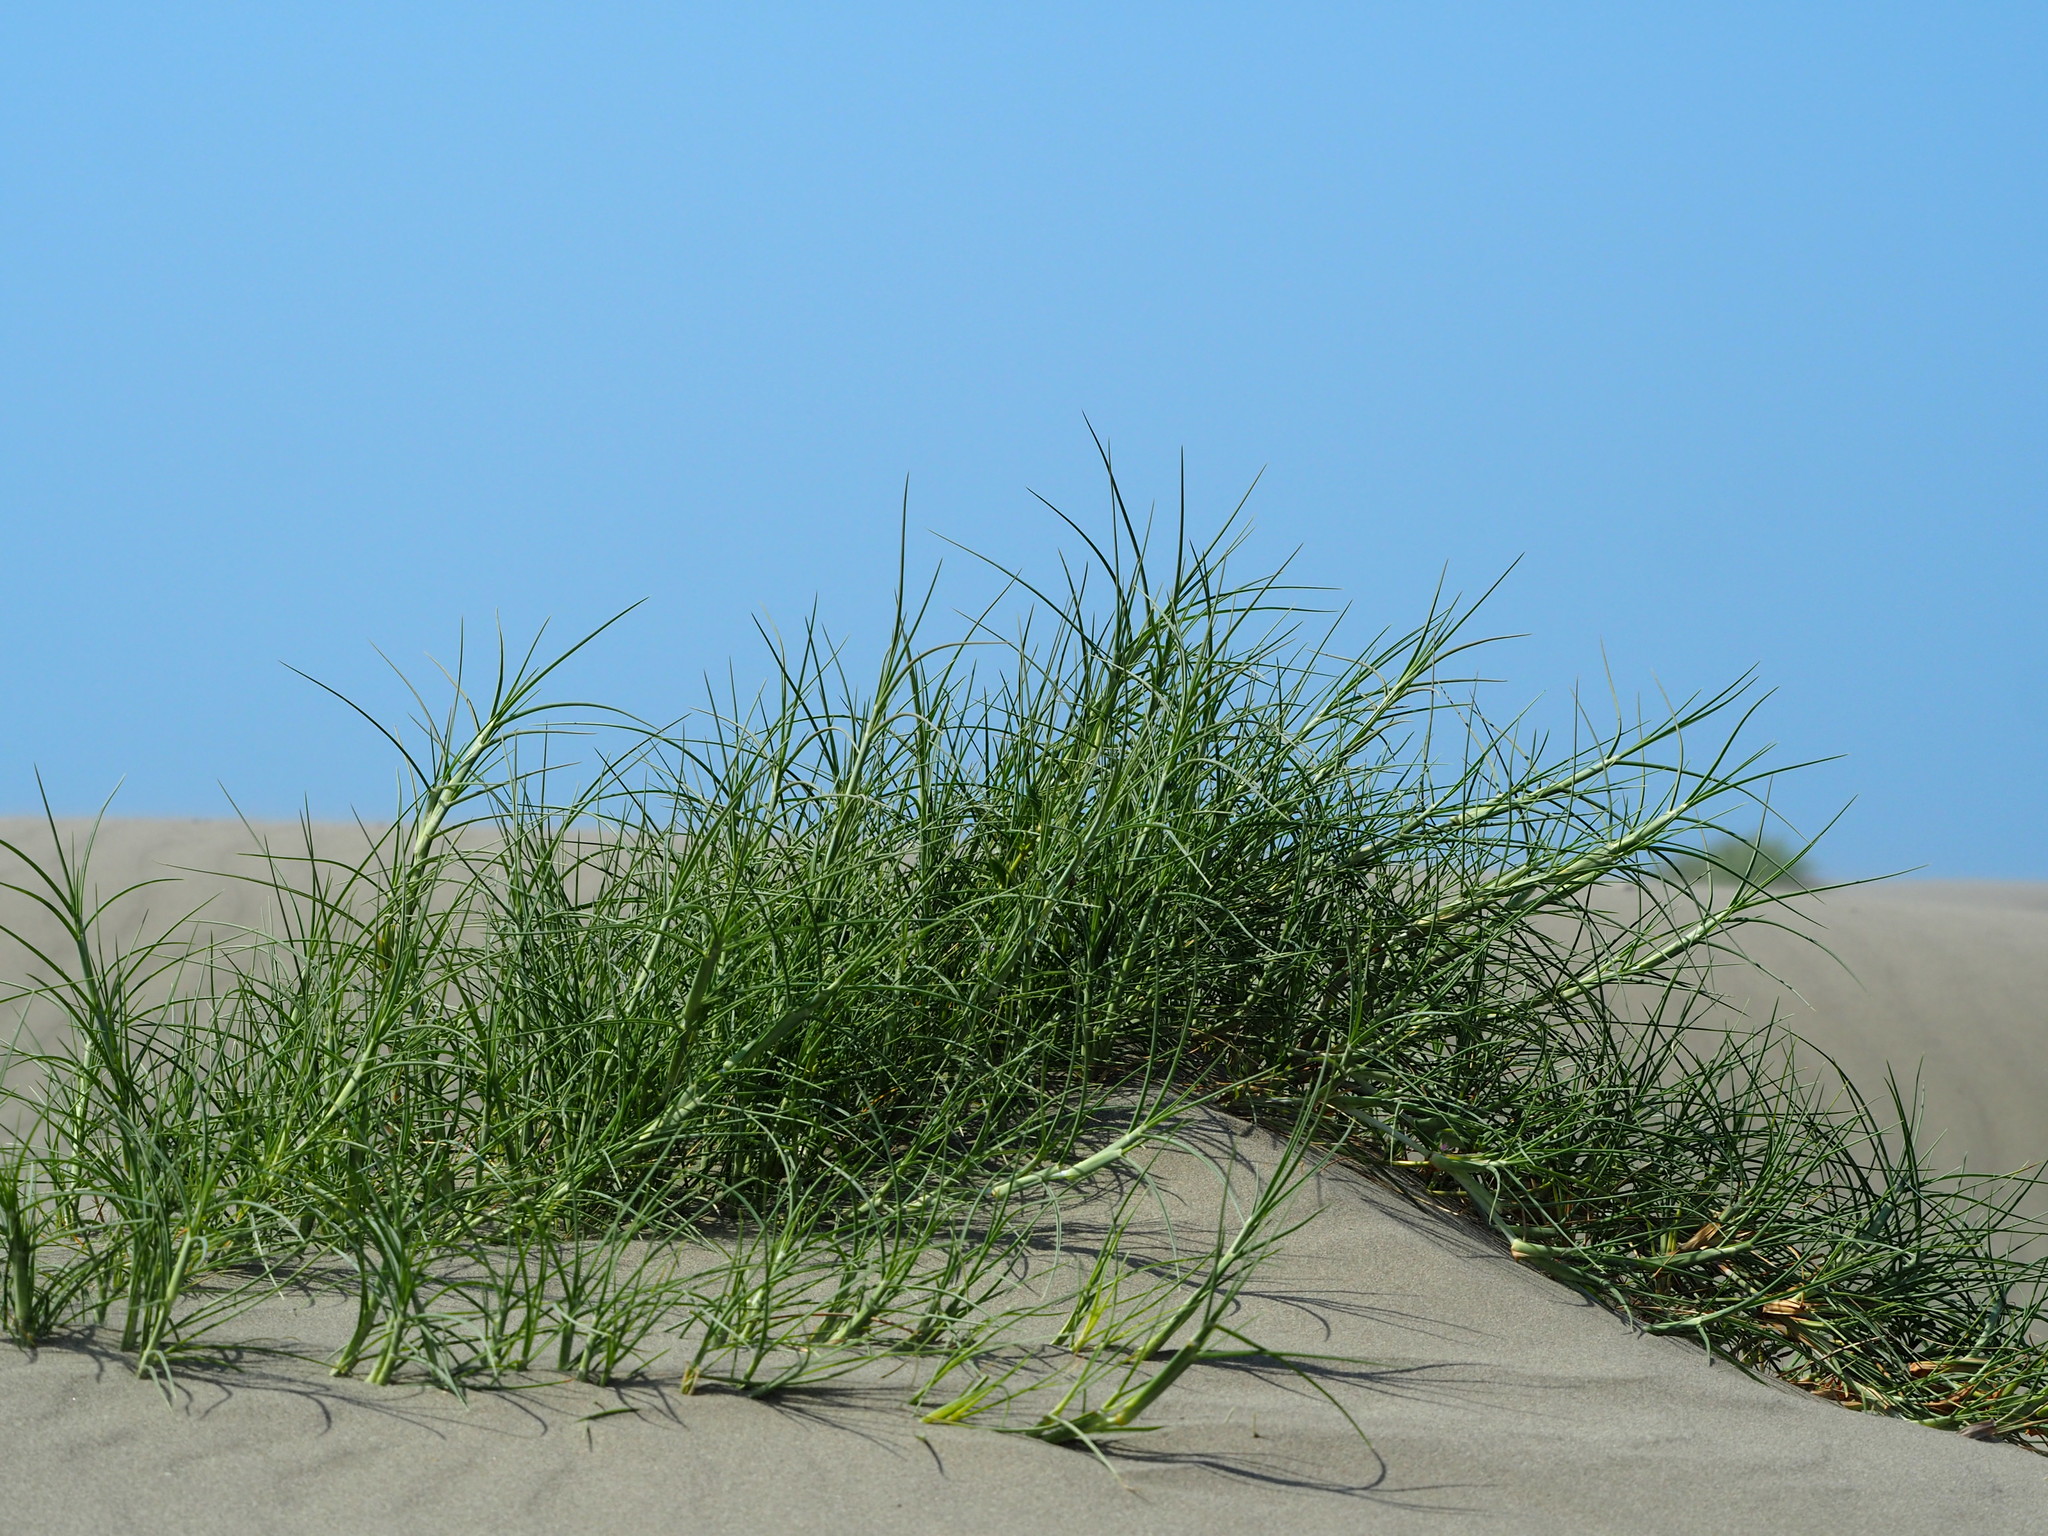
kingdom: Plantae
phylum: Tracheophyta
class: Liliopsida
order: Poales
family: Poaceae
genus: Spinifex
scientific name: Spinifex littoreus
